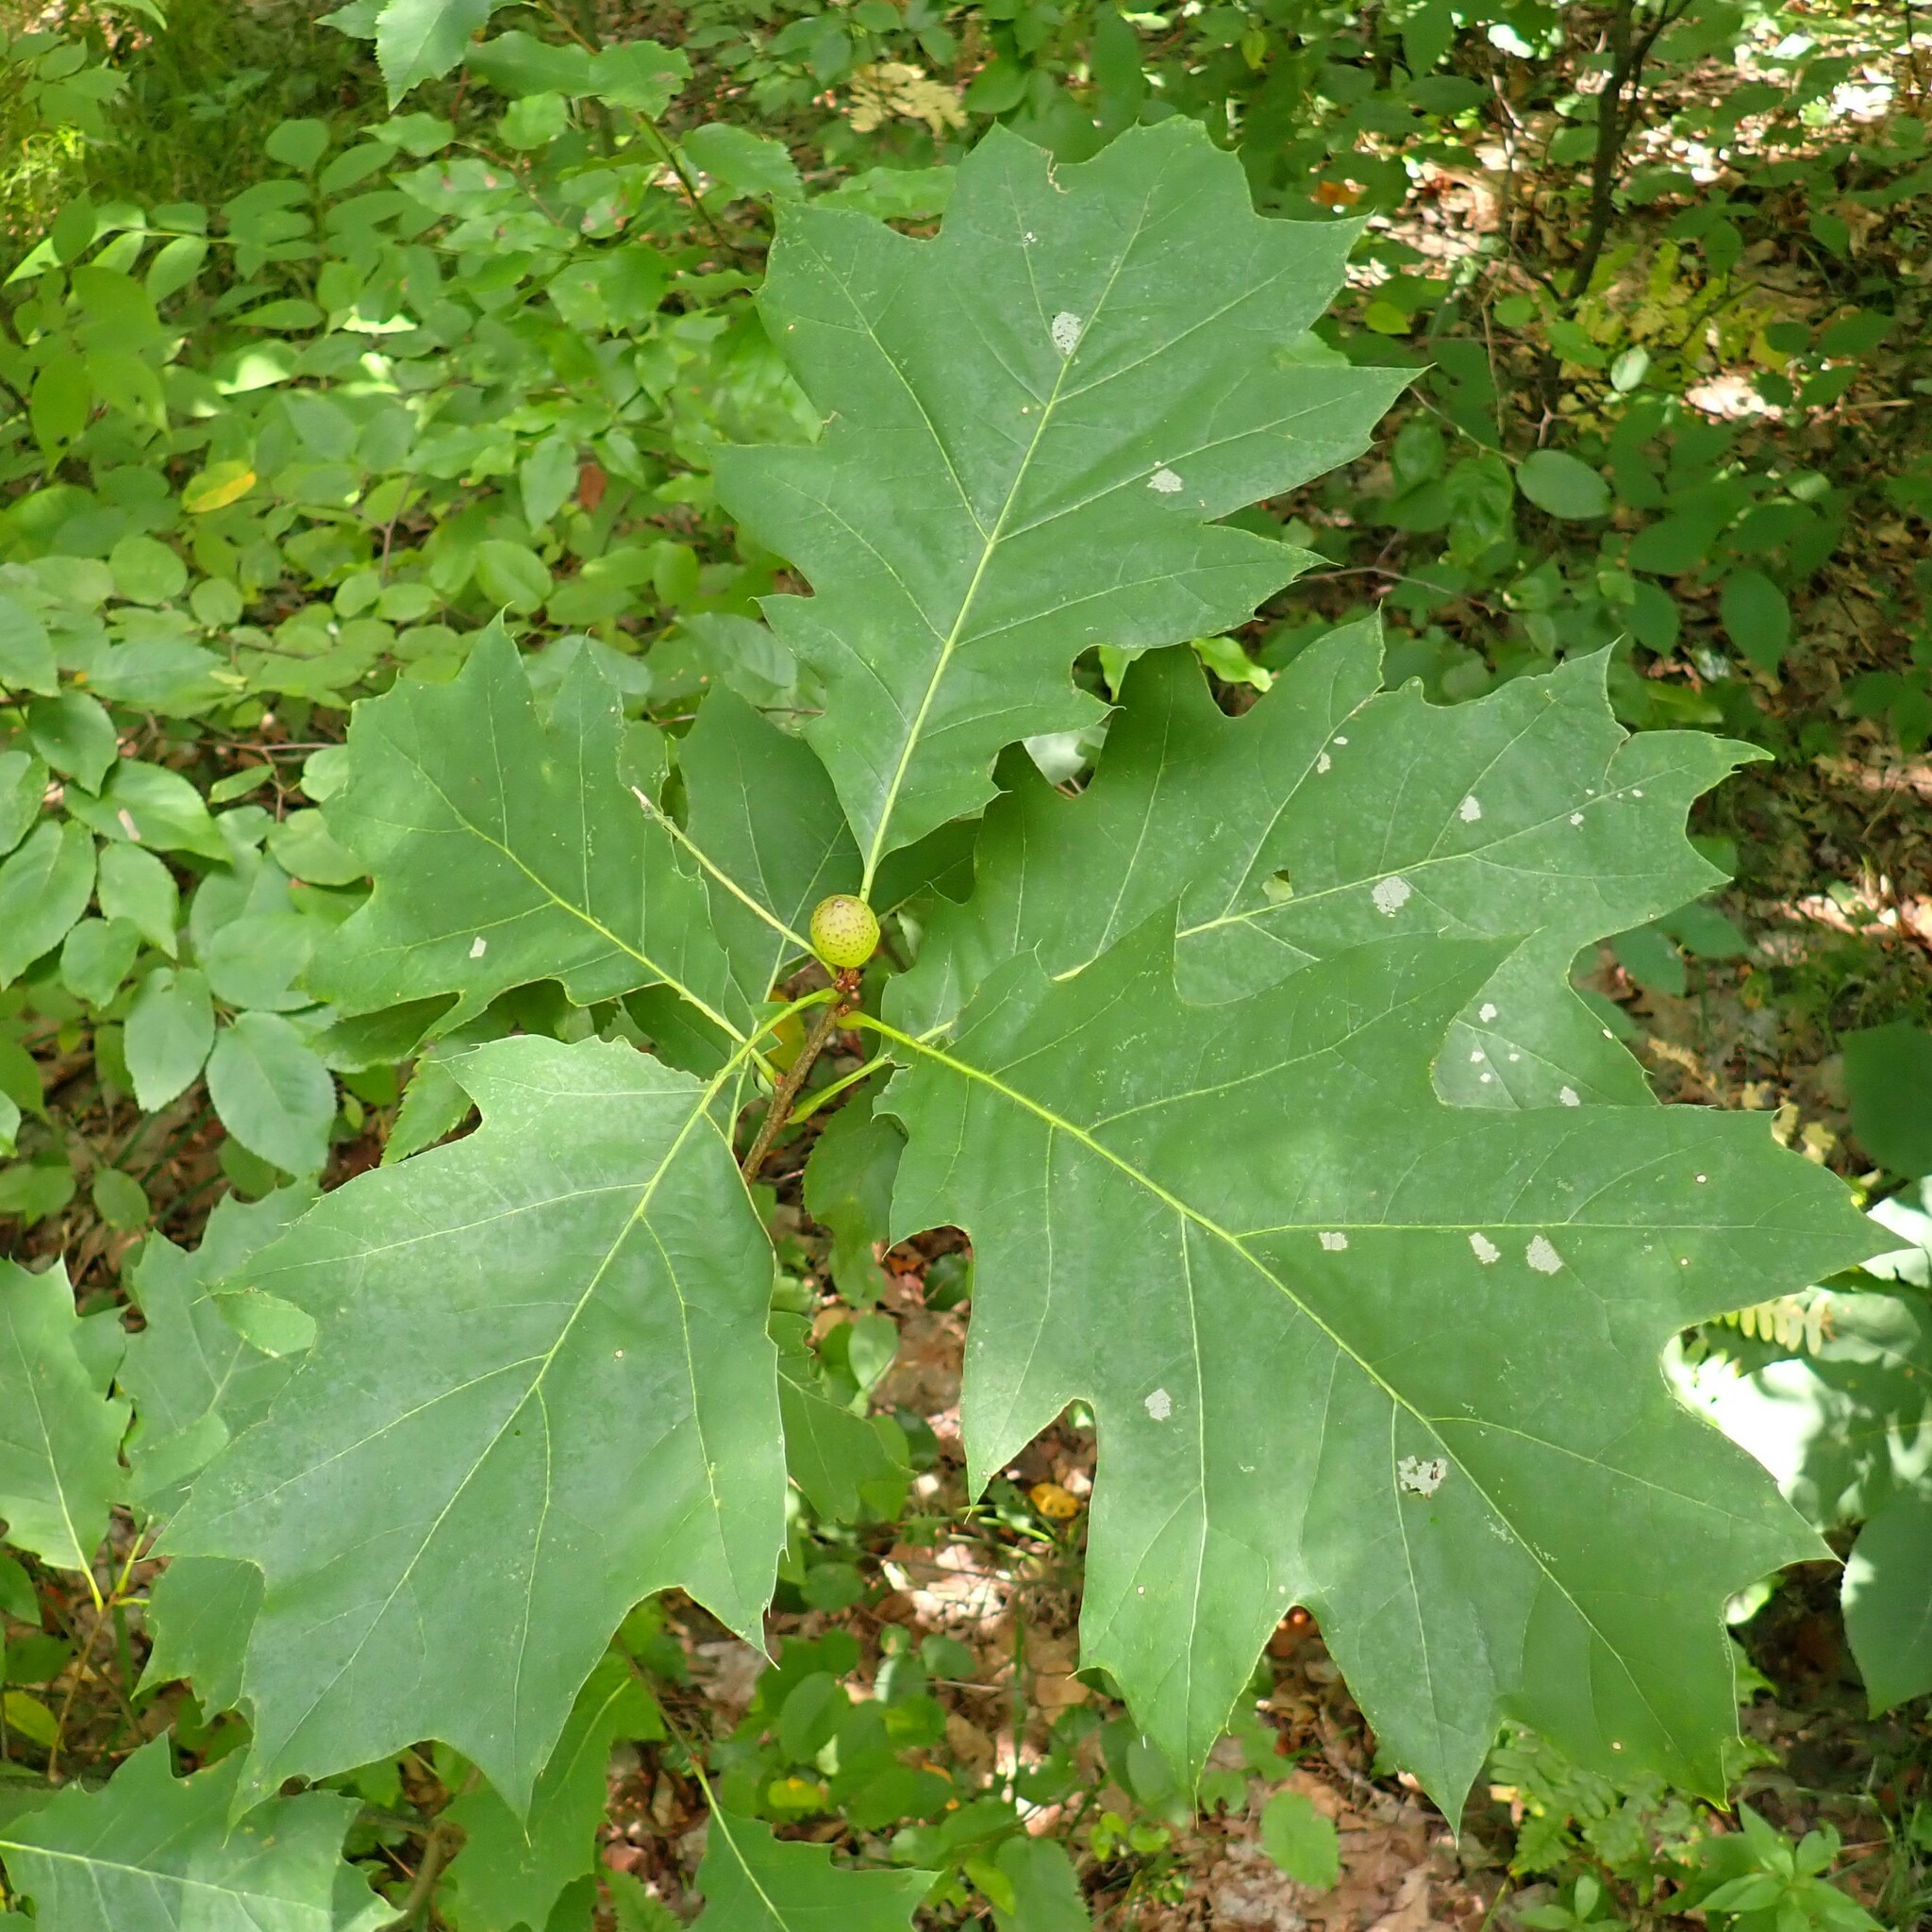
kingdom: Animalia
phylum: Arthropoda
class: Insecta
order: Hymenoptera
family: Cynipidae
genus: Amphibolips
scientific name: Amphibolips
